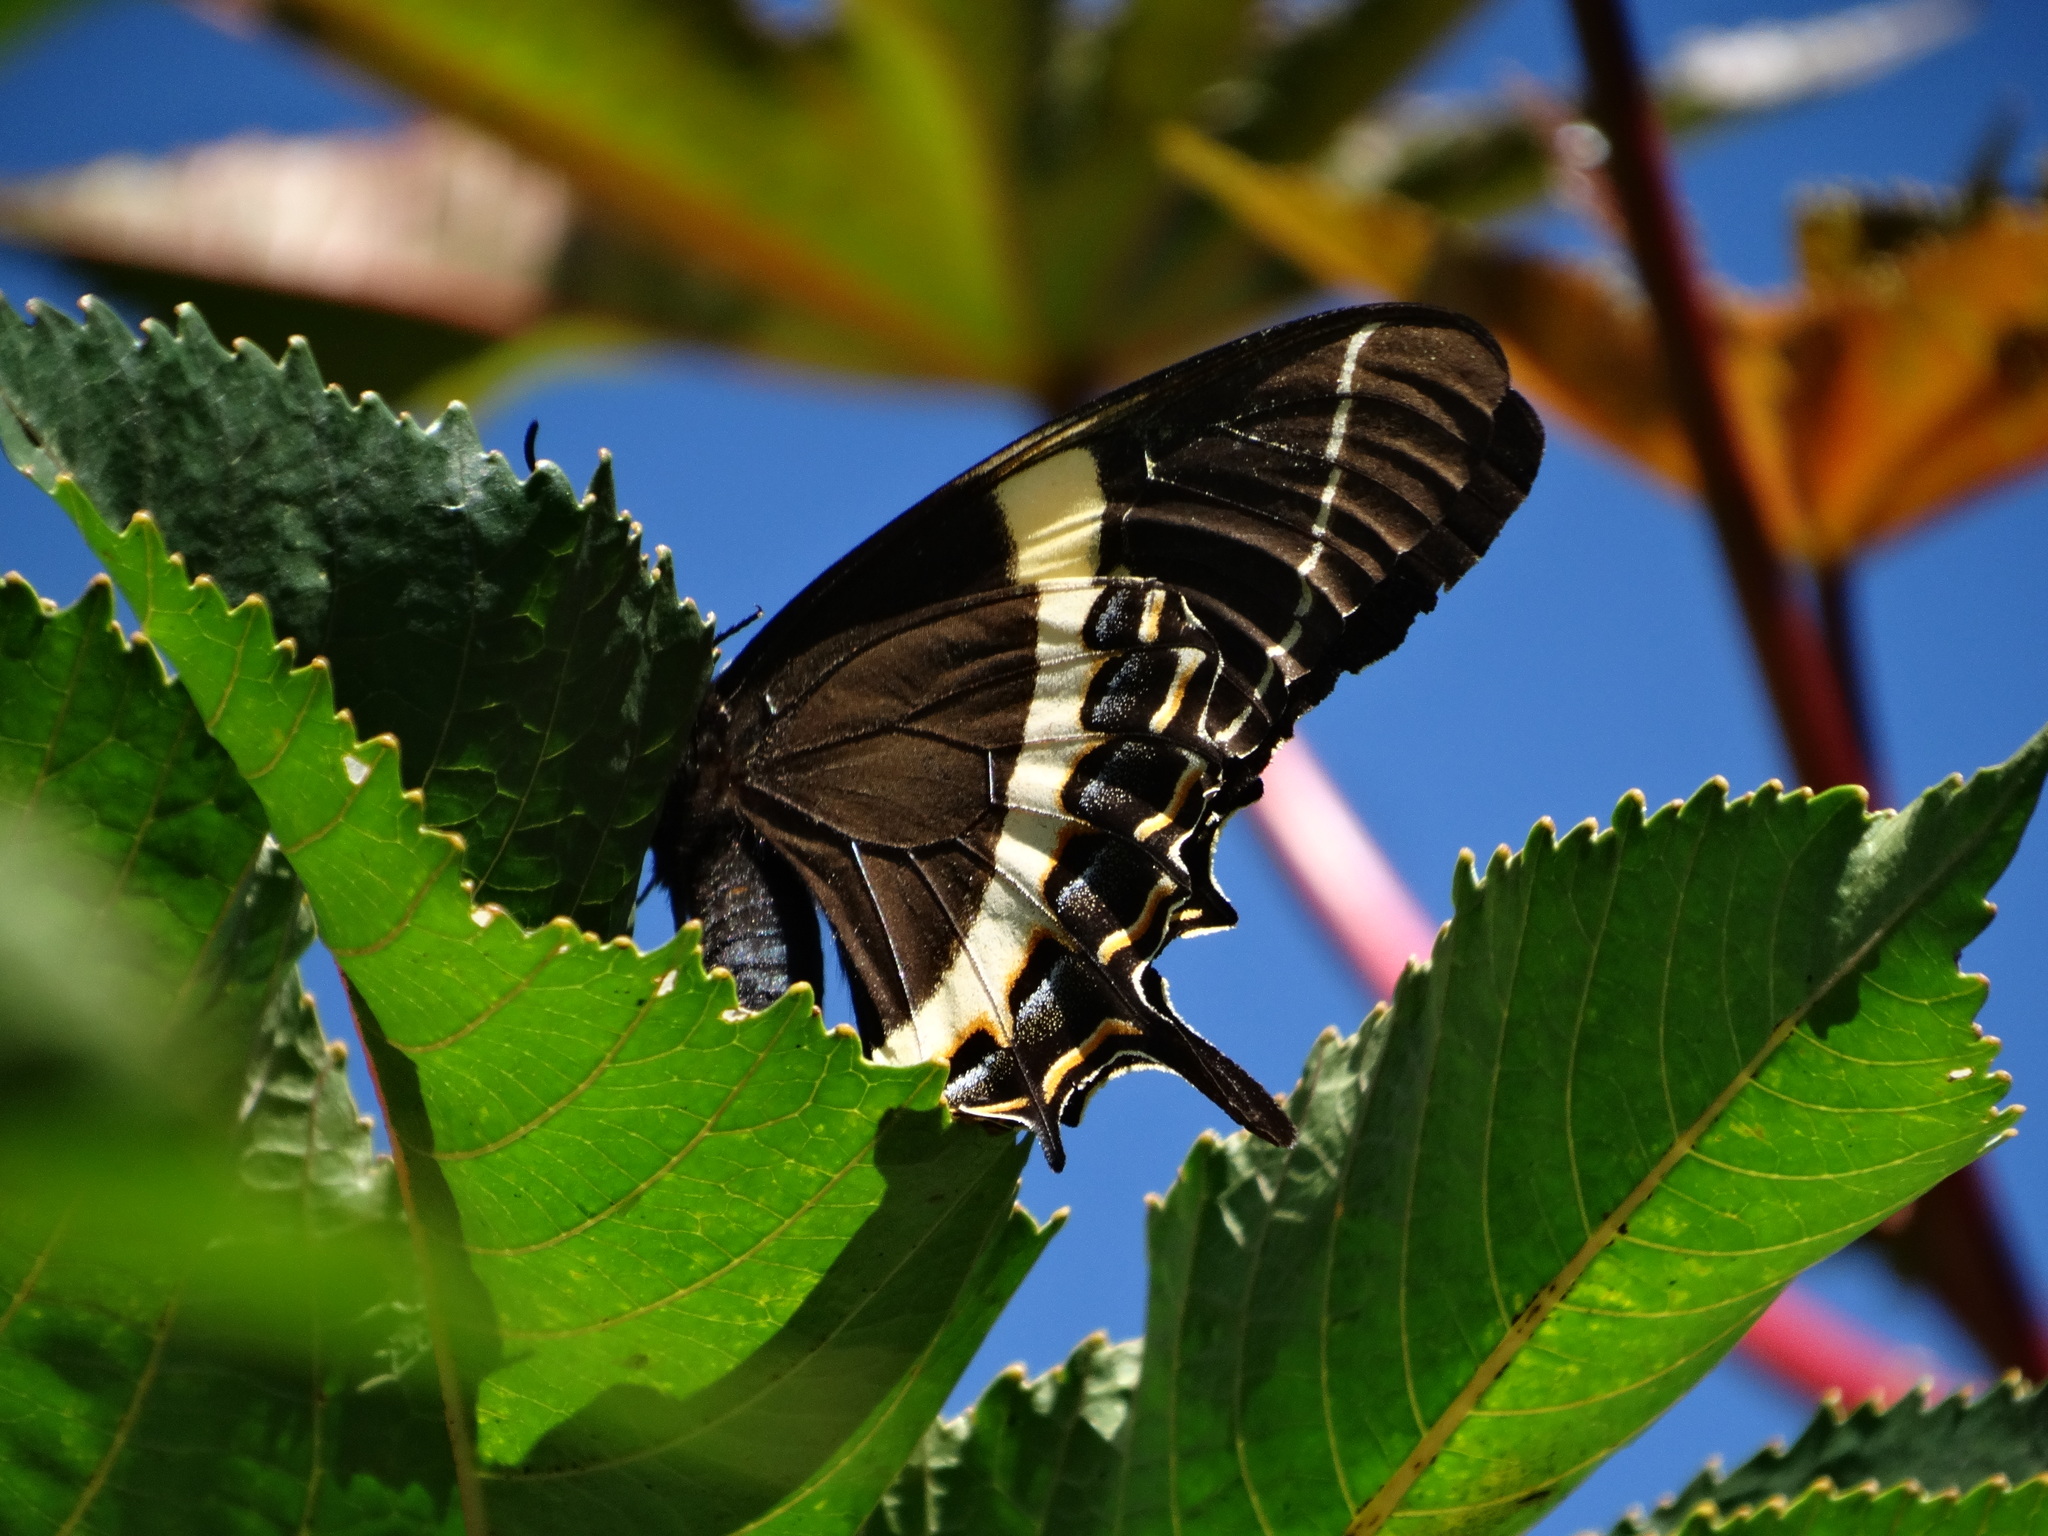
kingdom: Animalia
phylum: Arthropoda
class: Insecta
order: Lepidoptera
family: Papilionidae
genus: Papilio
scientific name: Papilio garamas
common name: Magnificent swallowtail
